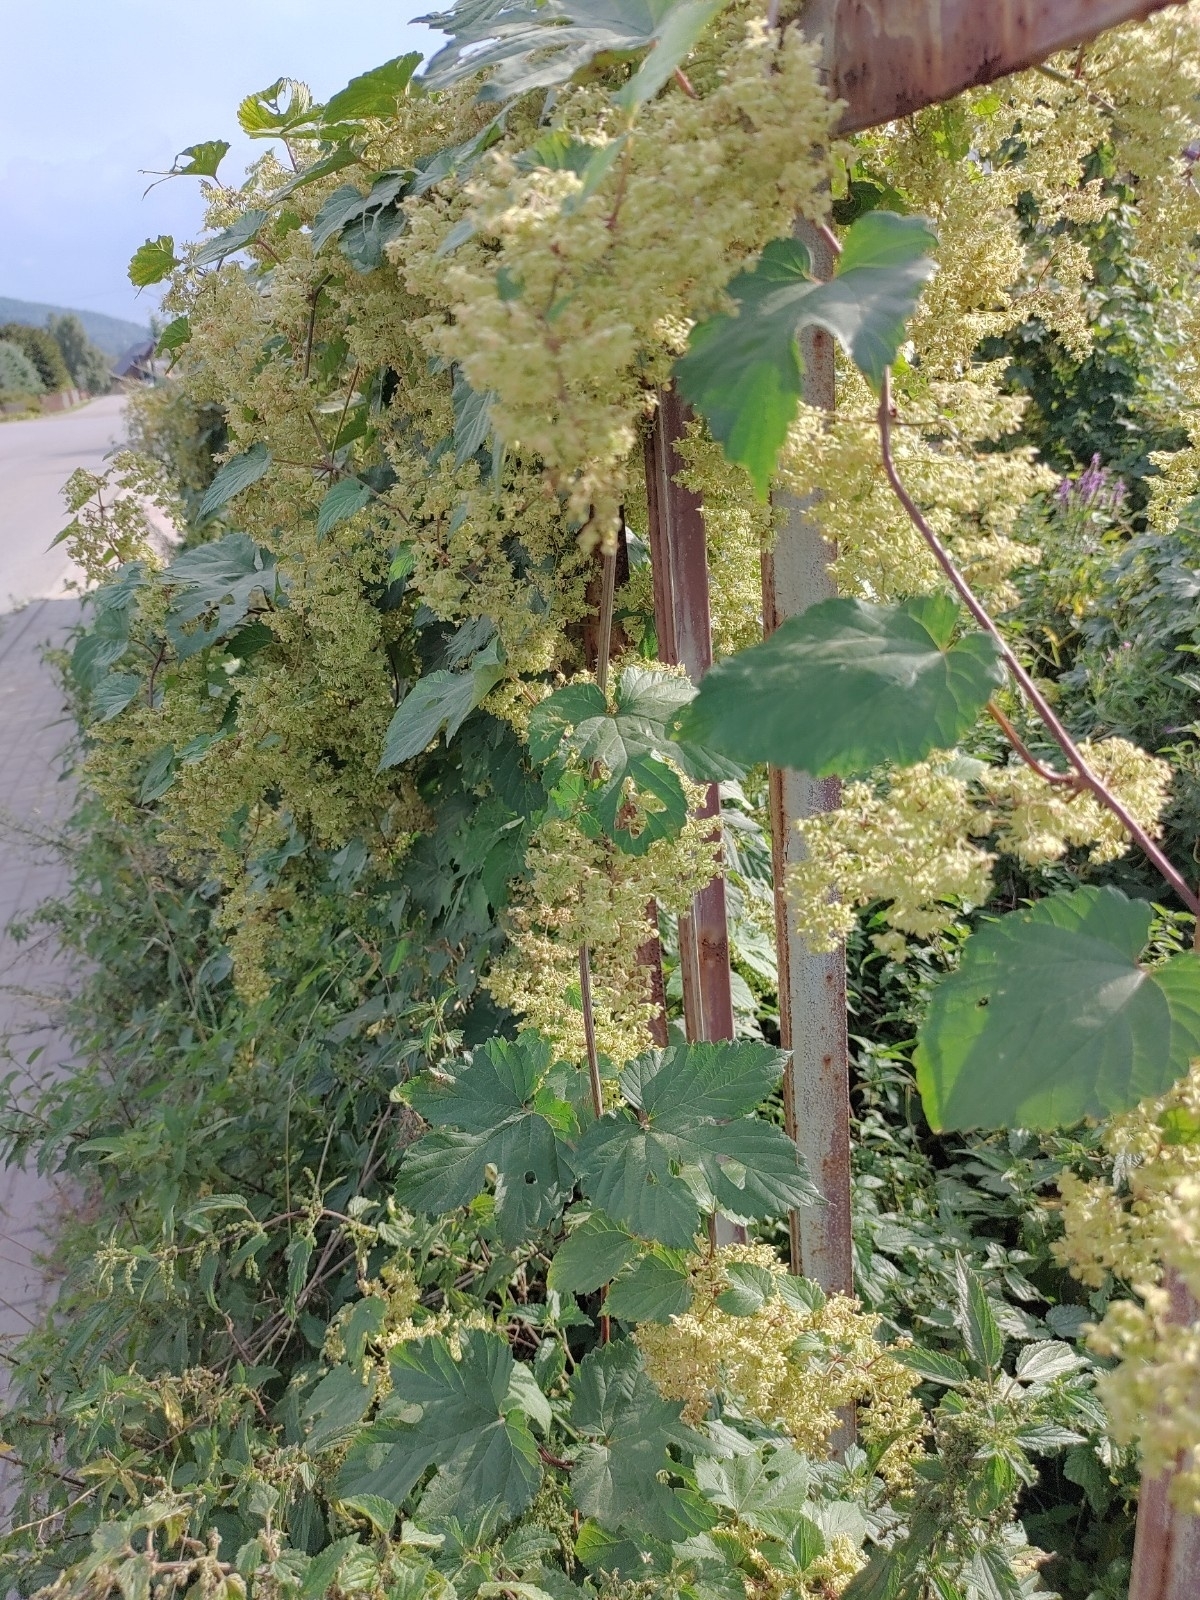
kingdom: Plantae
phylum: Tracheophyta
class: Magnoliopsida
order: Rosales
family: Cannabaceae
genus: Humulus
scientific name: Humulus lupulus
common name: Hop
